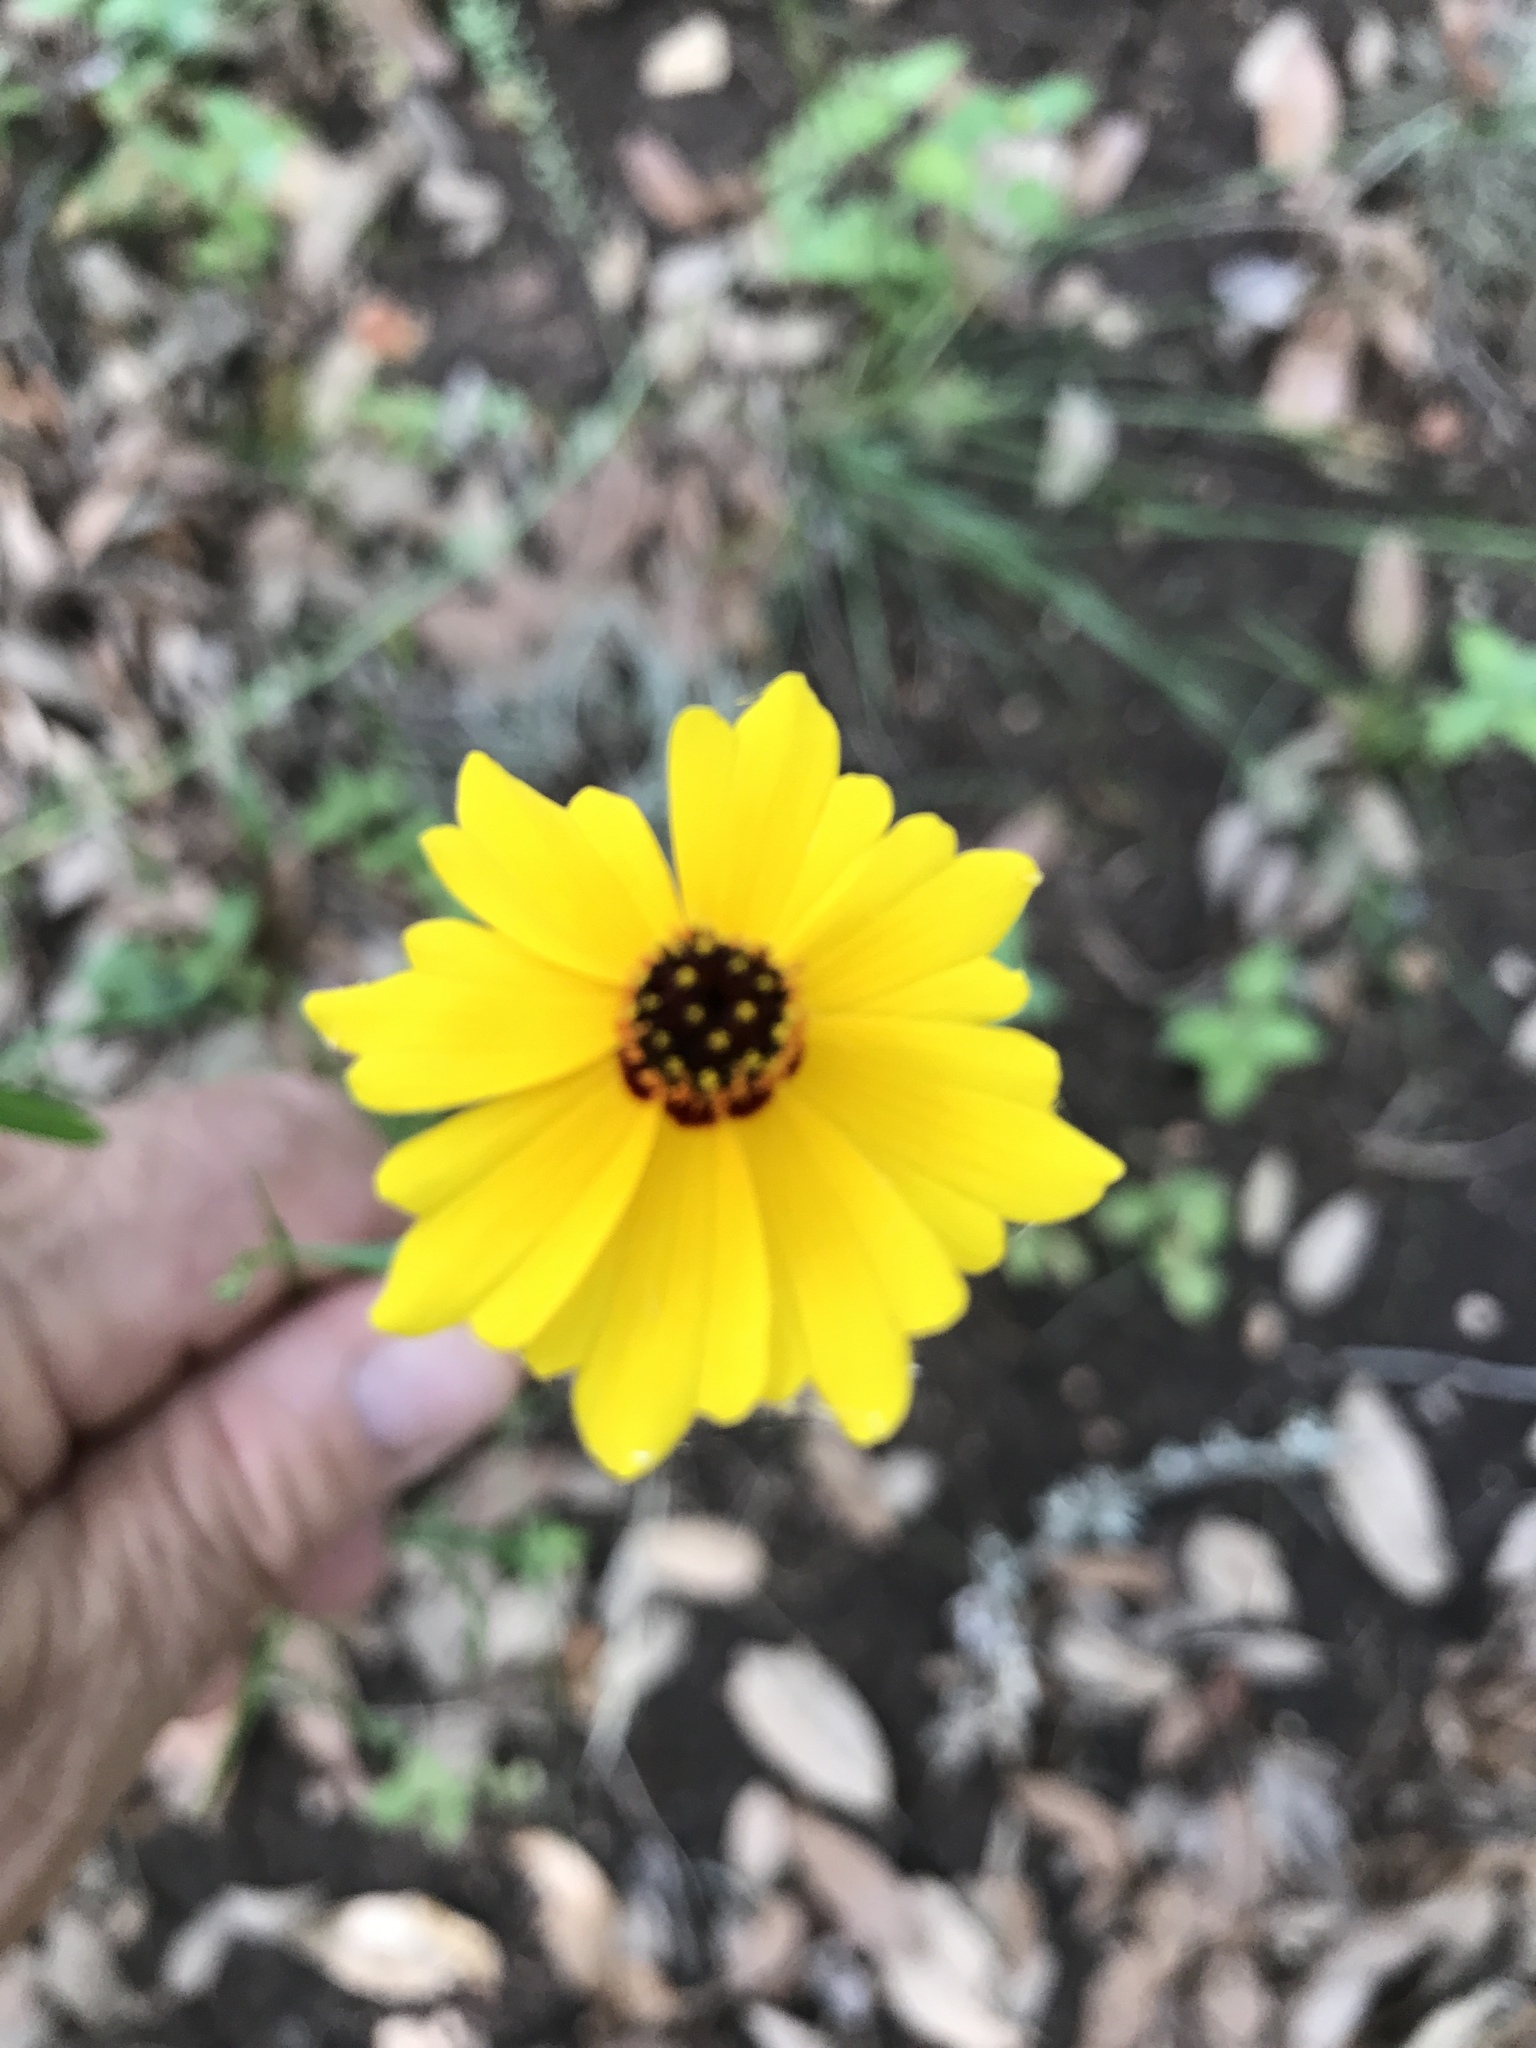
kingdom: Plantae
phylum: Tracheophyta
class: Magnoliopsida
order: Asterales
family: Asteraceae
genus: Thelesperma
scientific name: Thelesperma filifolium
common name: Stiff greenthread
